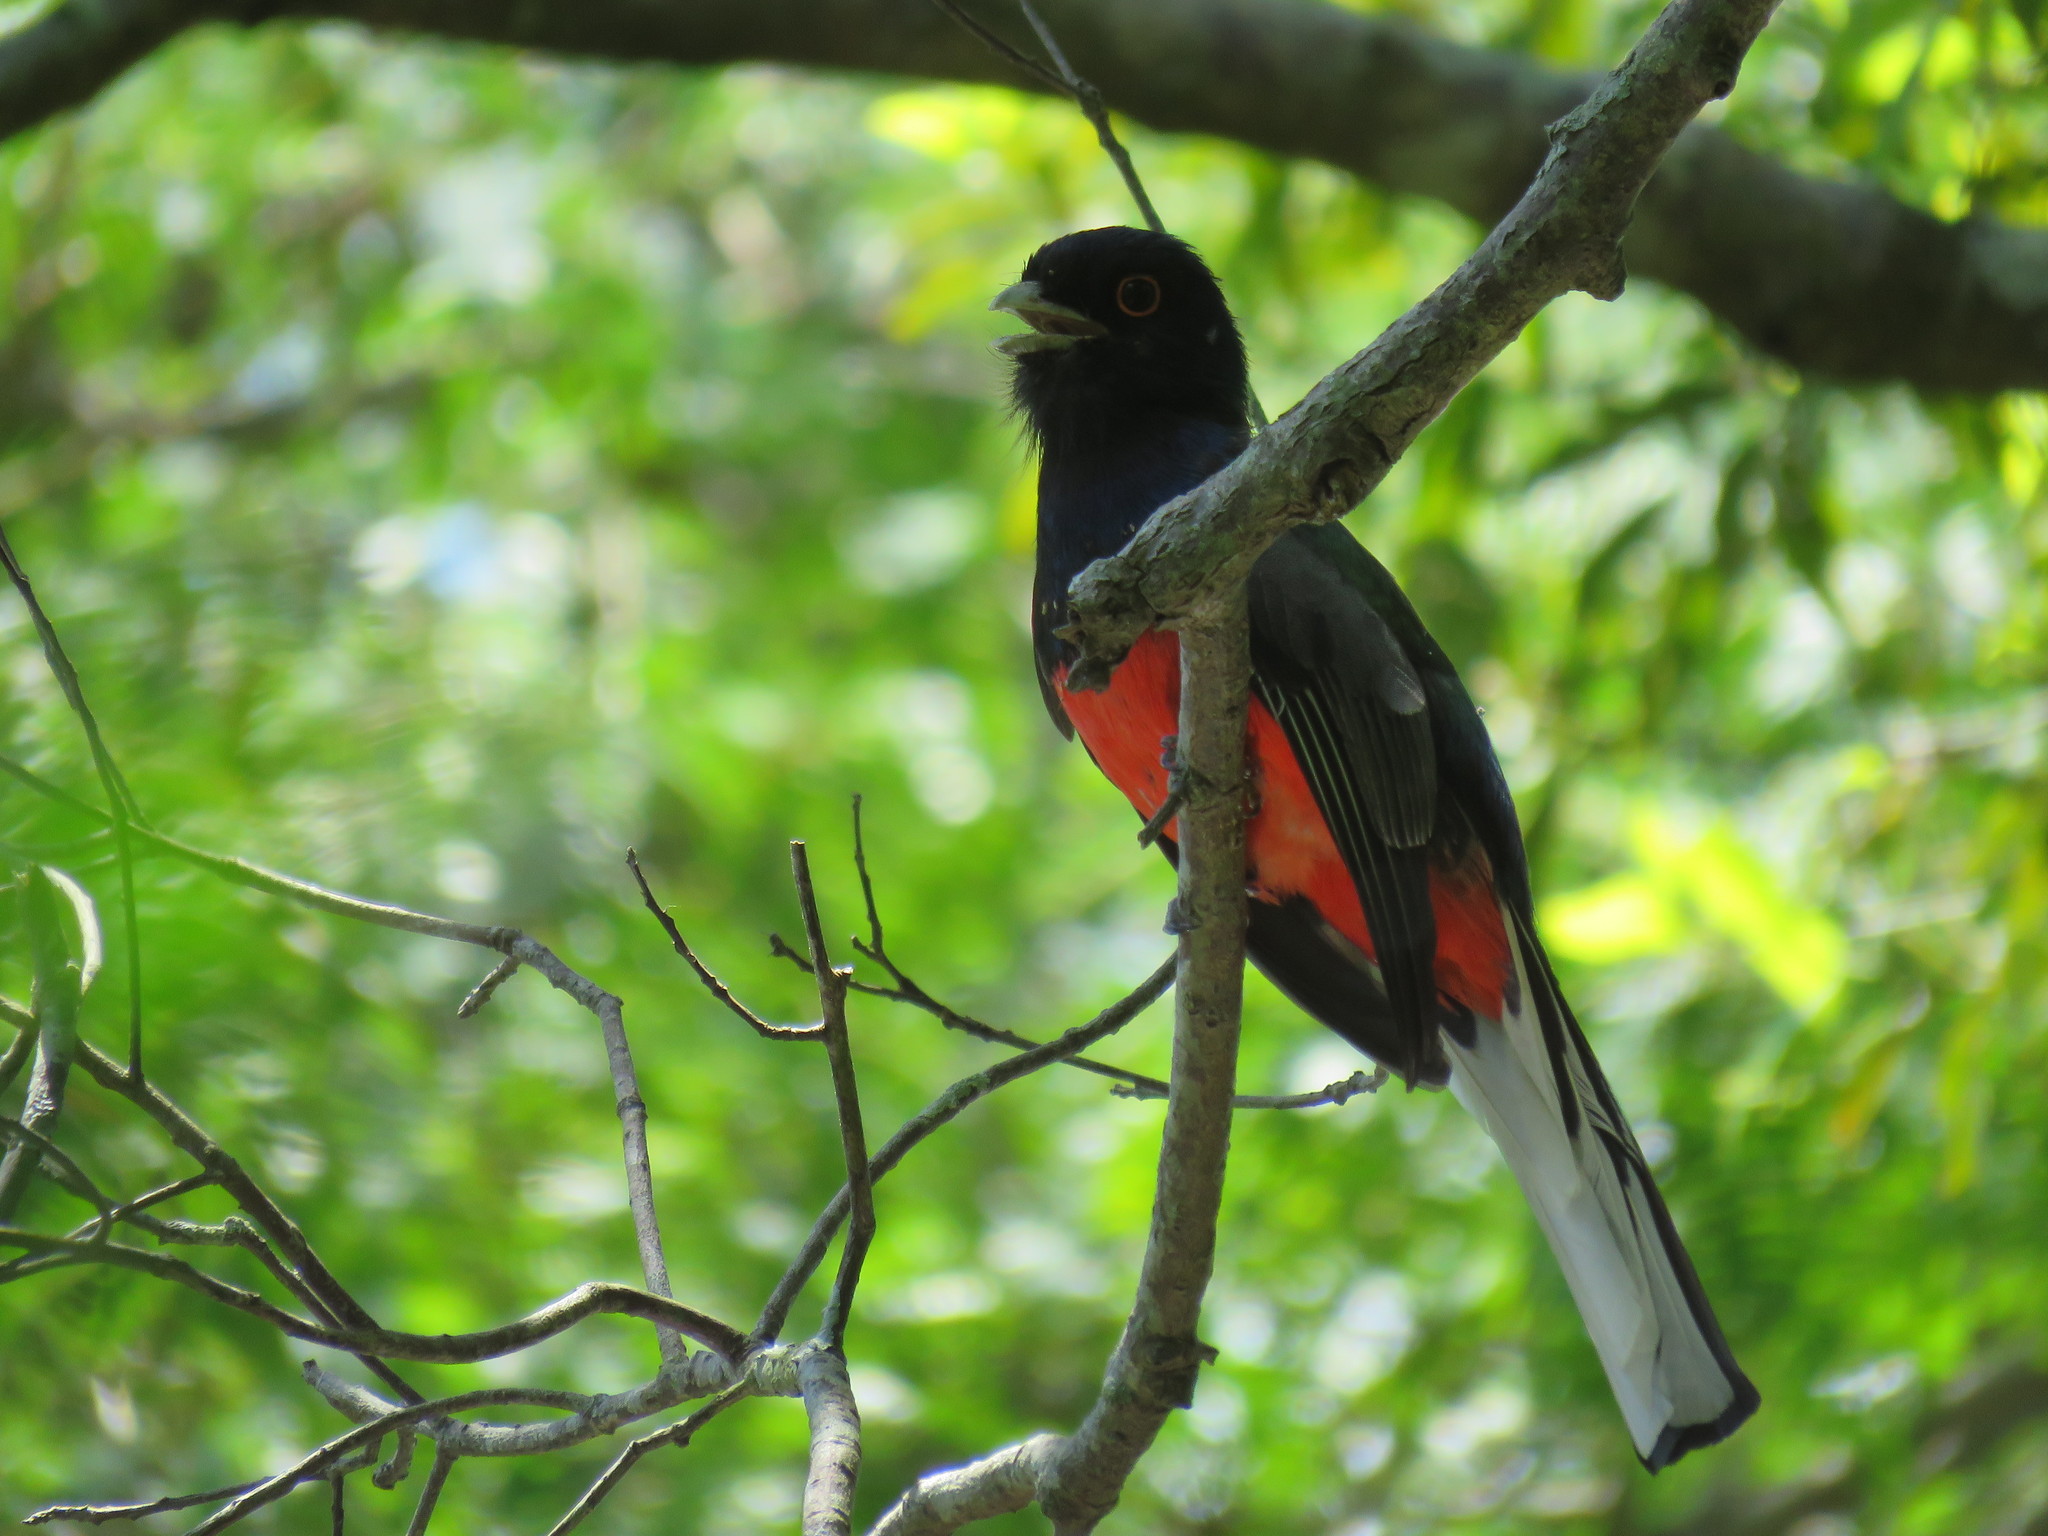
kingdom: Animalia
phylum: Chordata
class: Aves
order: Trogoniformes
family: Trogonidae
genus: Trogon
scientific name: Trogon surrucura
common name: Surucua trogon
